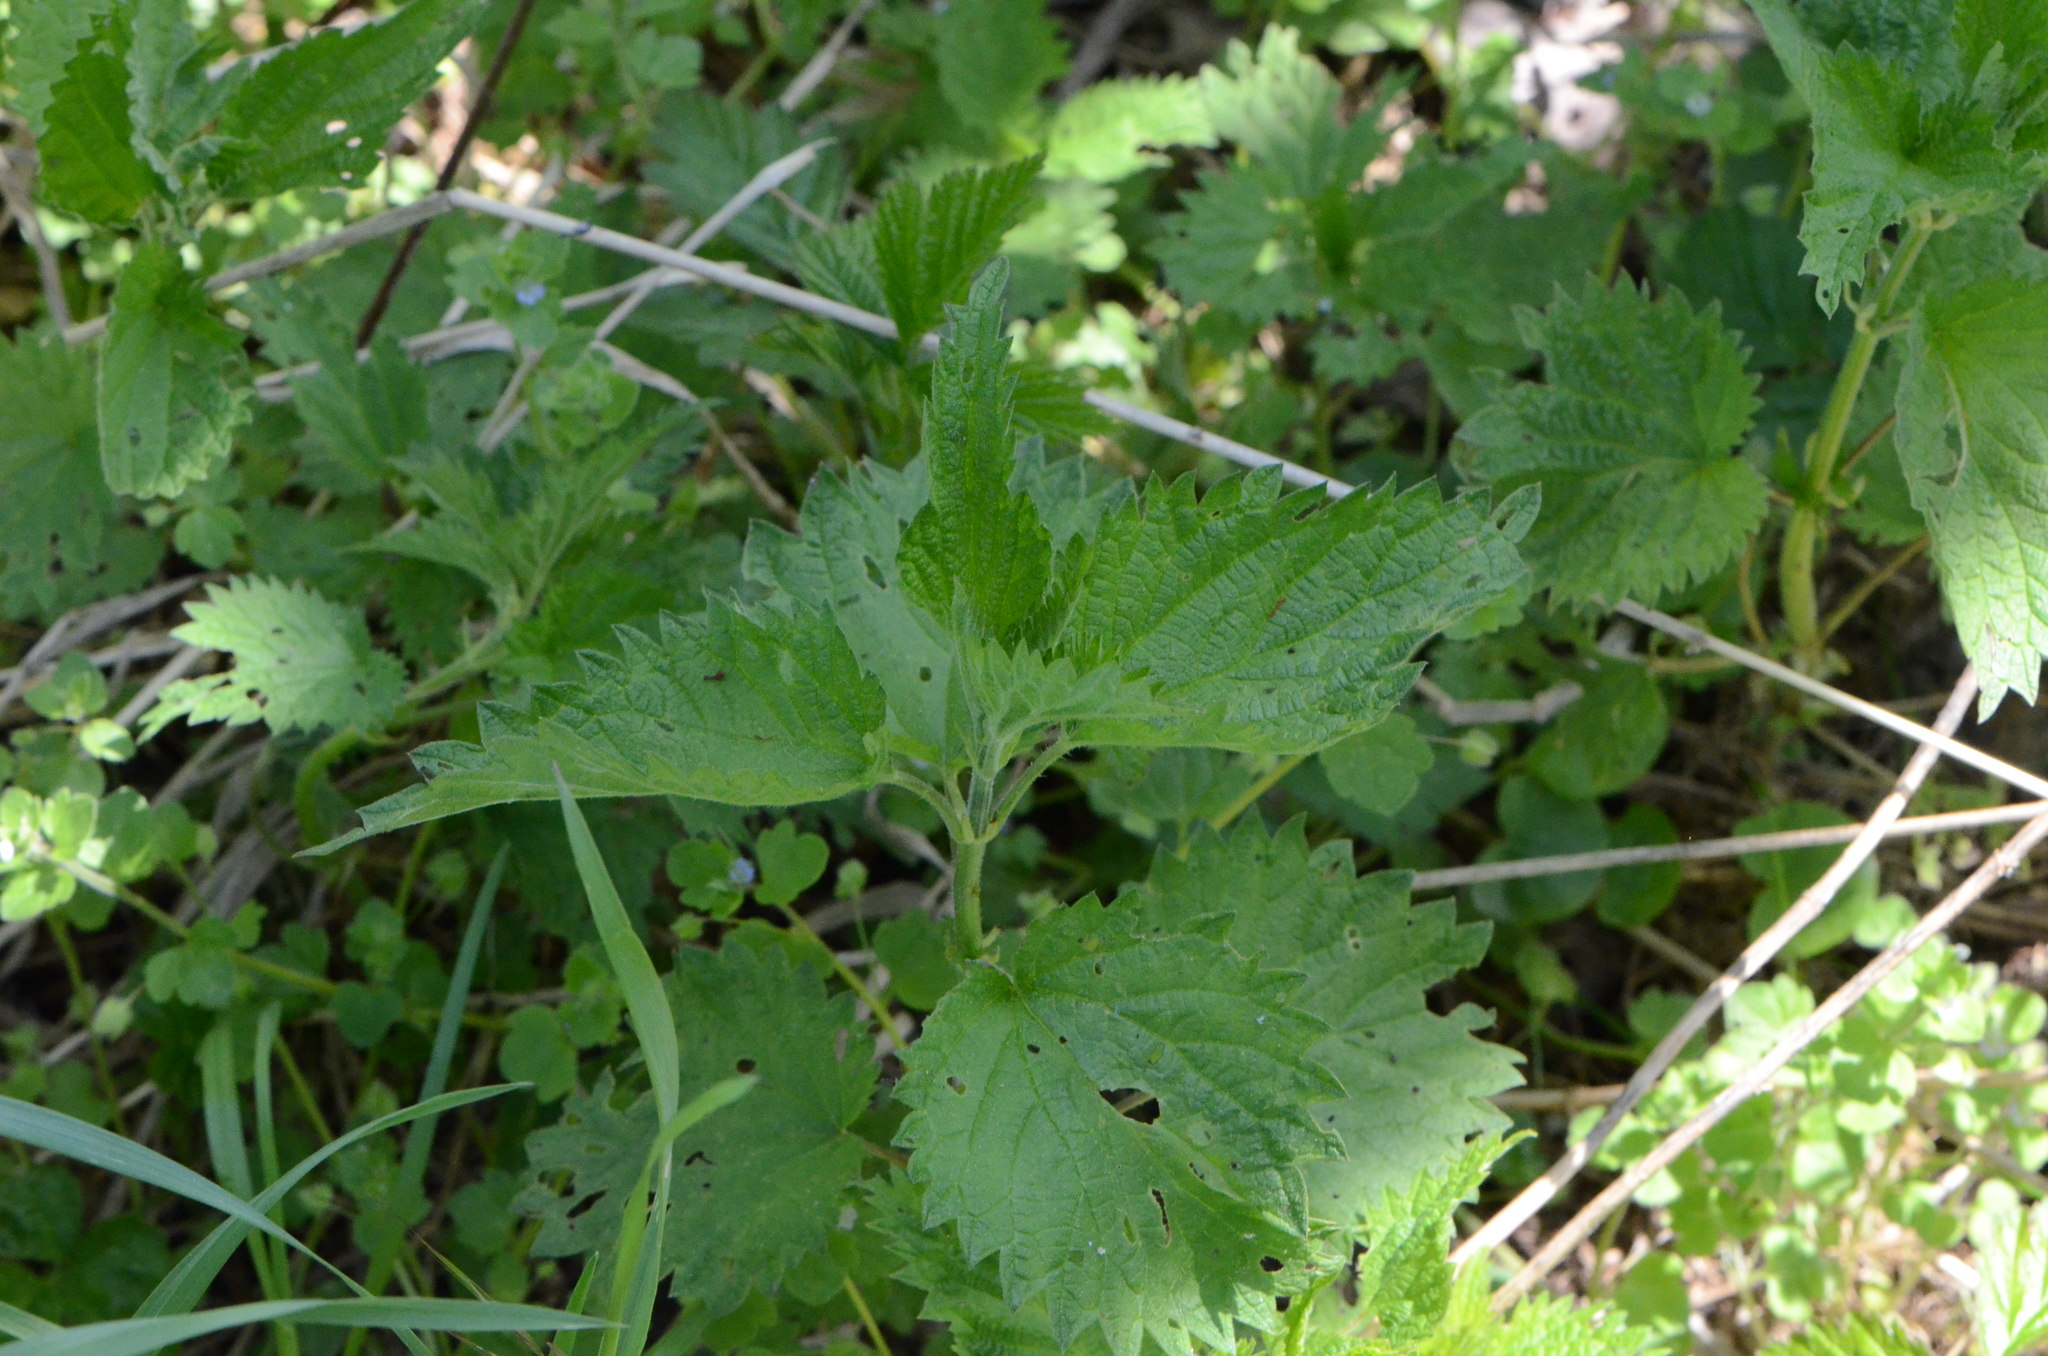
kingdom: Plantae
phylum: Tracheophyta
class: Magnoliopsida
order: Rosales
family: Urticaceae
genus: Urtica
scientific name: Urtica dioica
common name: Common nettle
